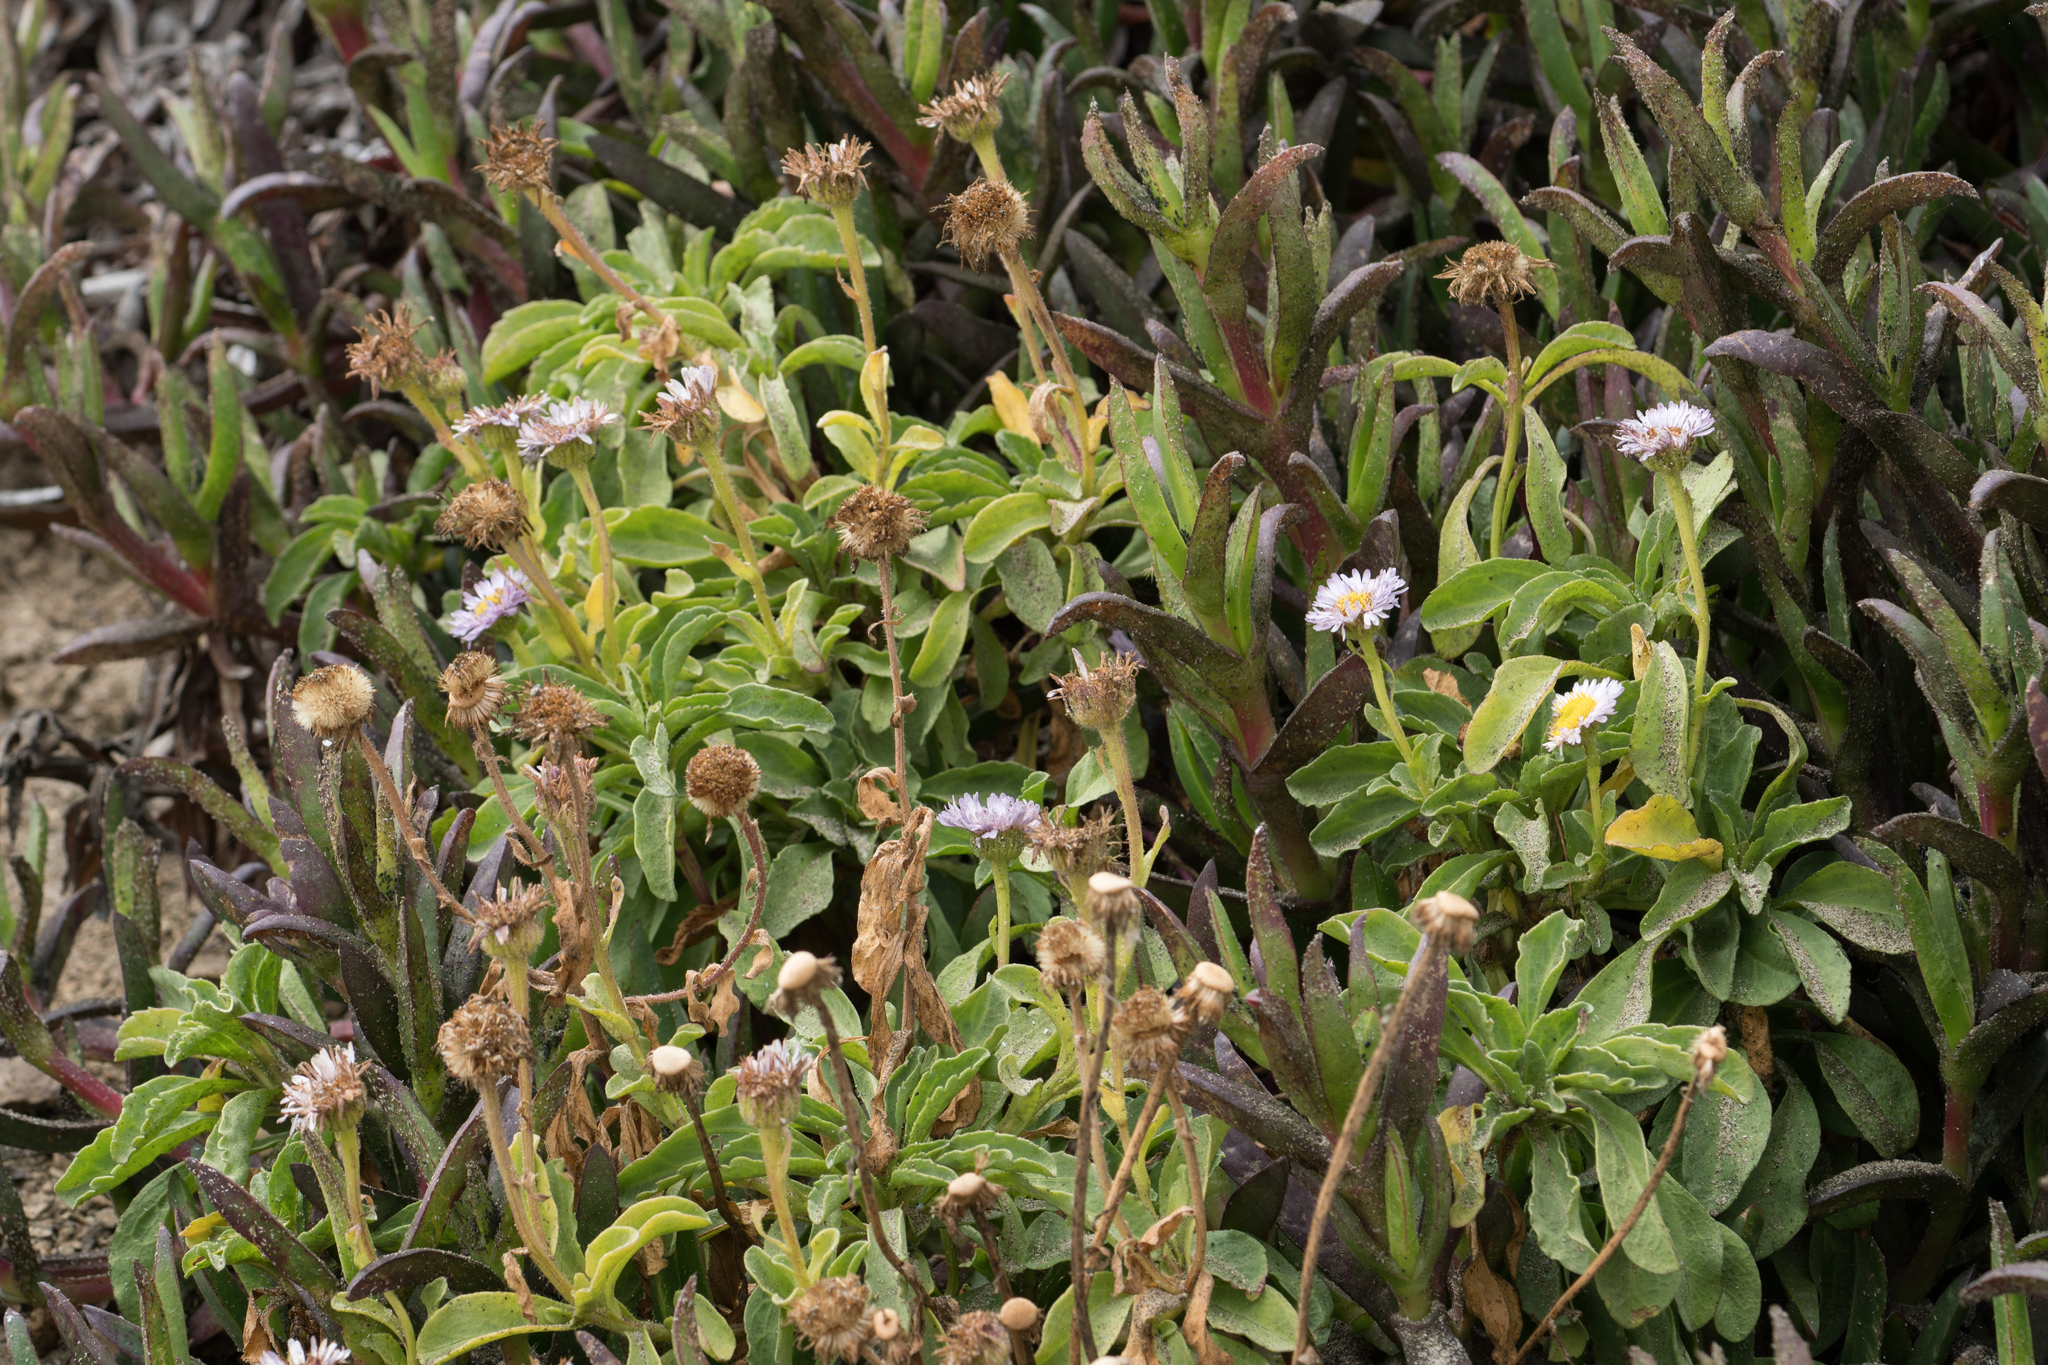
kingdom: Plantae
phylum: Tracheophyta
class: Magnoliopsida
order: Asterales
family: Asteraceae
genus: Erigeron
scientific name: Erigeron glaucus
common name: Seaside daisy
